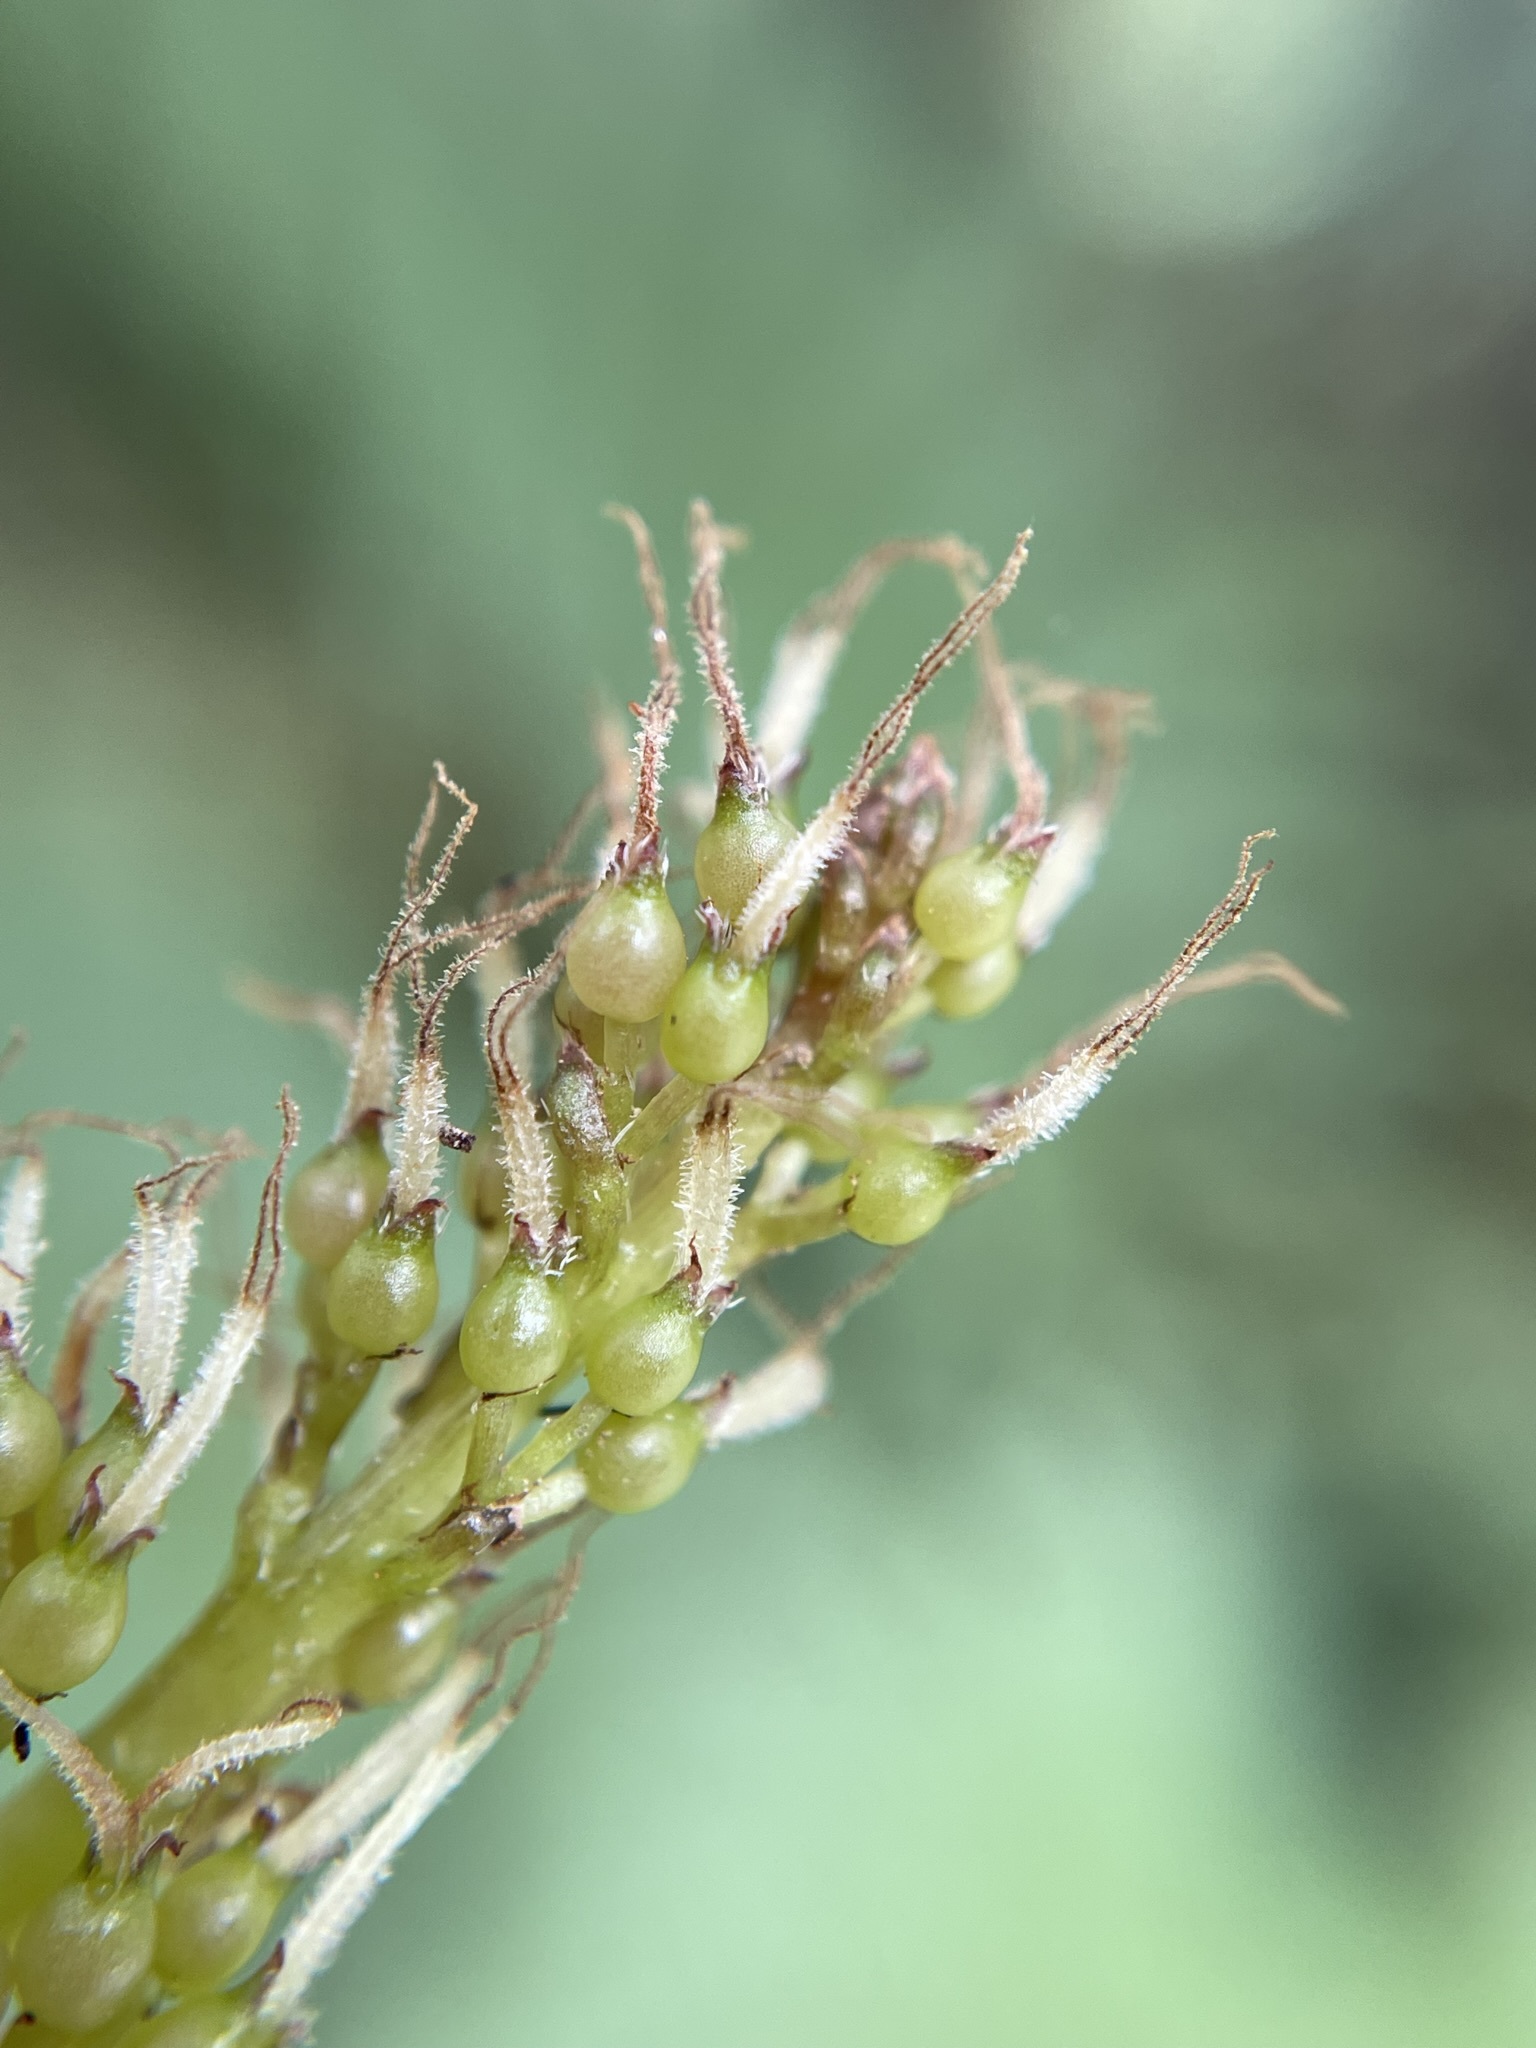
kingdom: Plantae
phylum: Tracheophyta
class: Magnoliopsida
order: Gunnerales
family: Gunneraceae
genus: Gunnera
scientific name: Gunnera monoica
